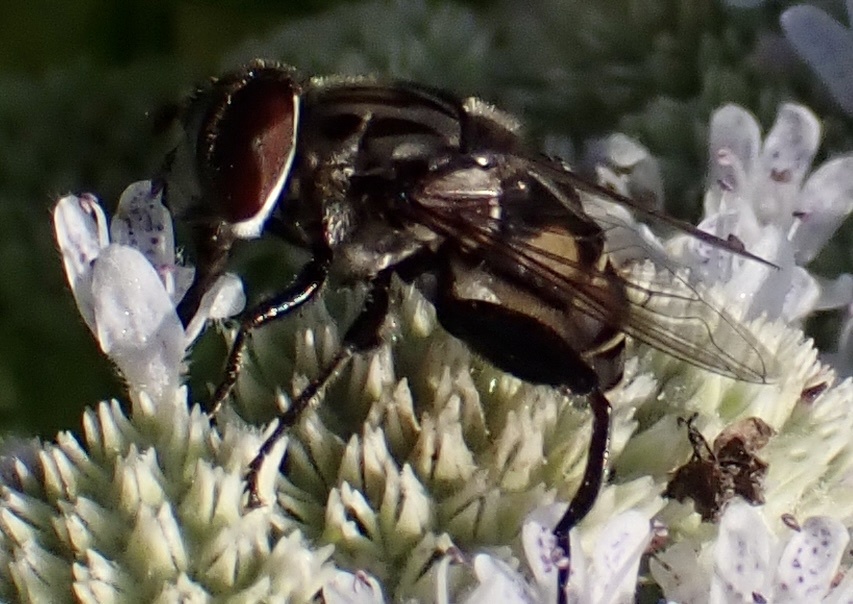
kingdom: Animalia
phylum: Arthropoda
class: Insecta
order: Diptera
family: Syrphidae
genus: Palpada
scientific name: Palpada furcata
